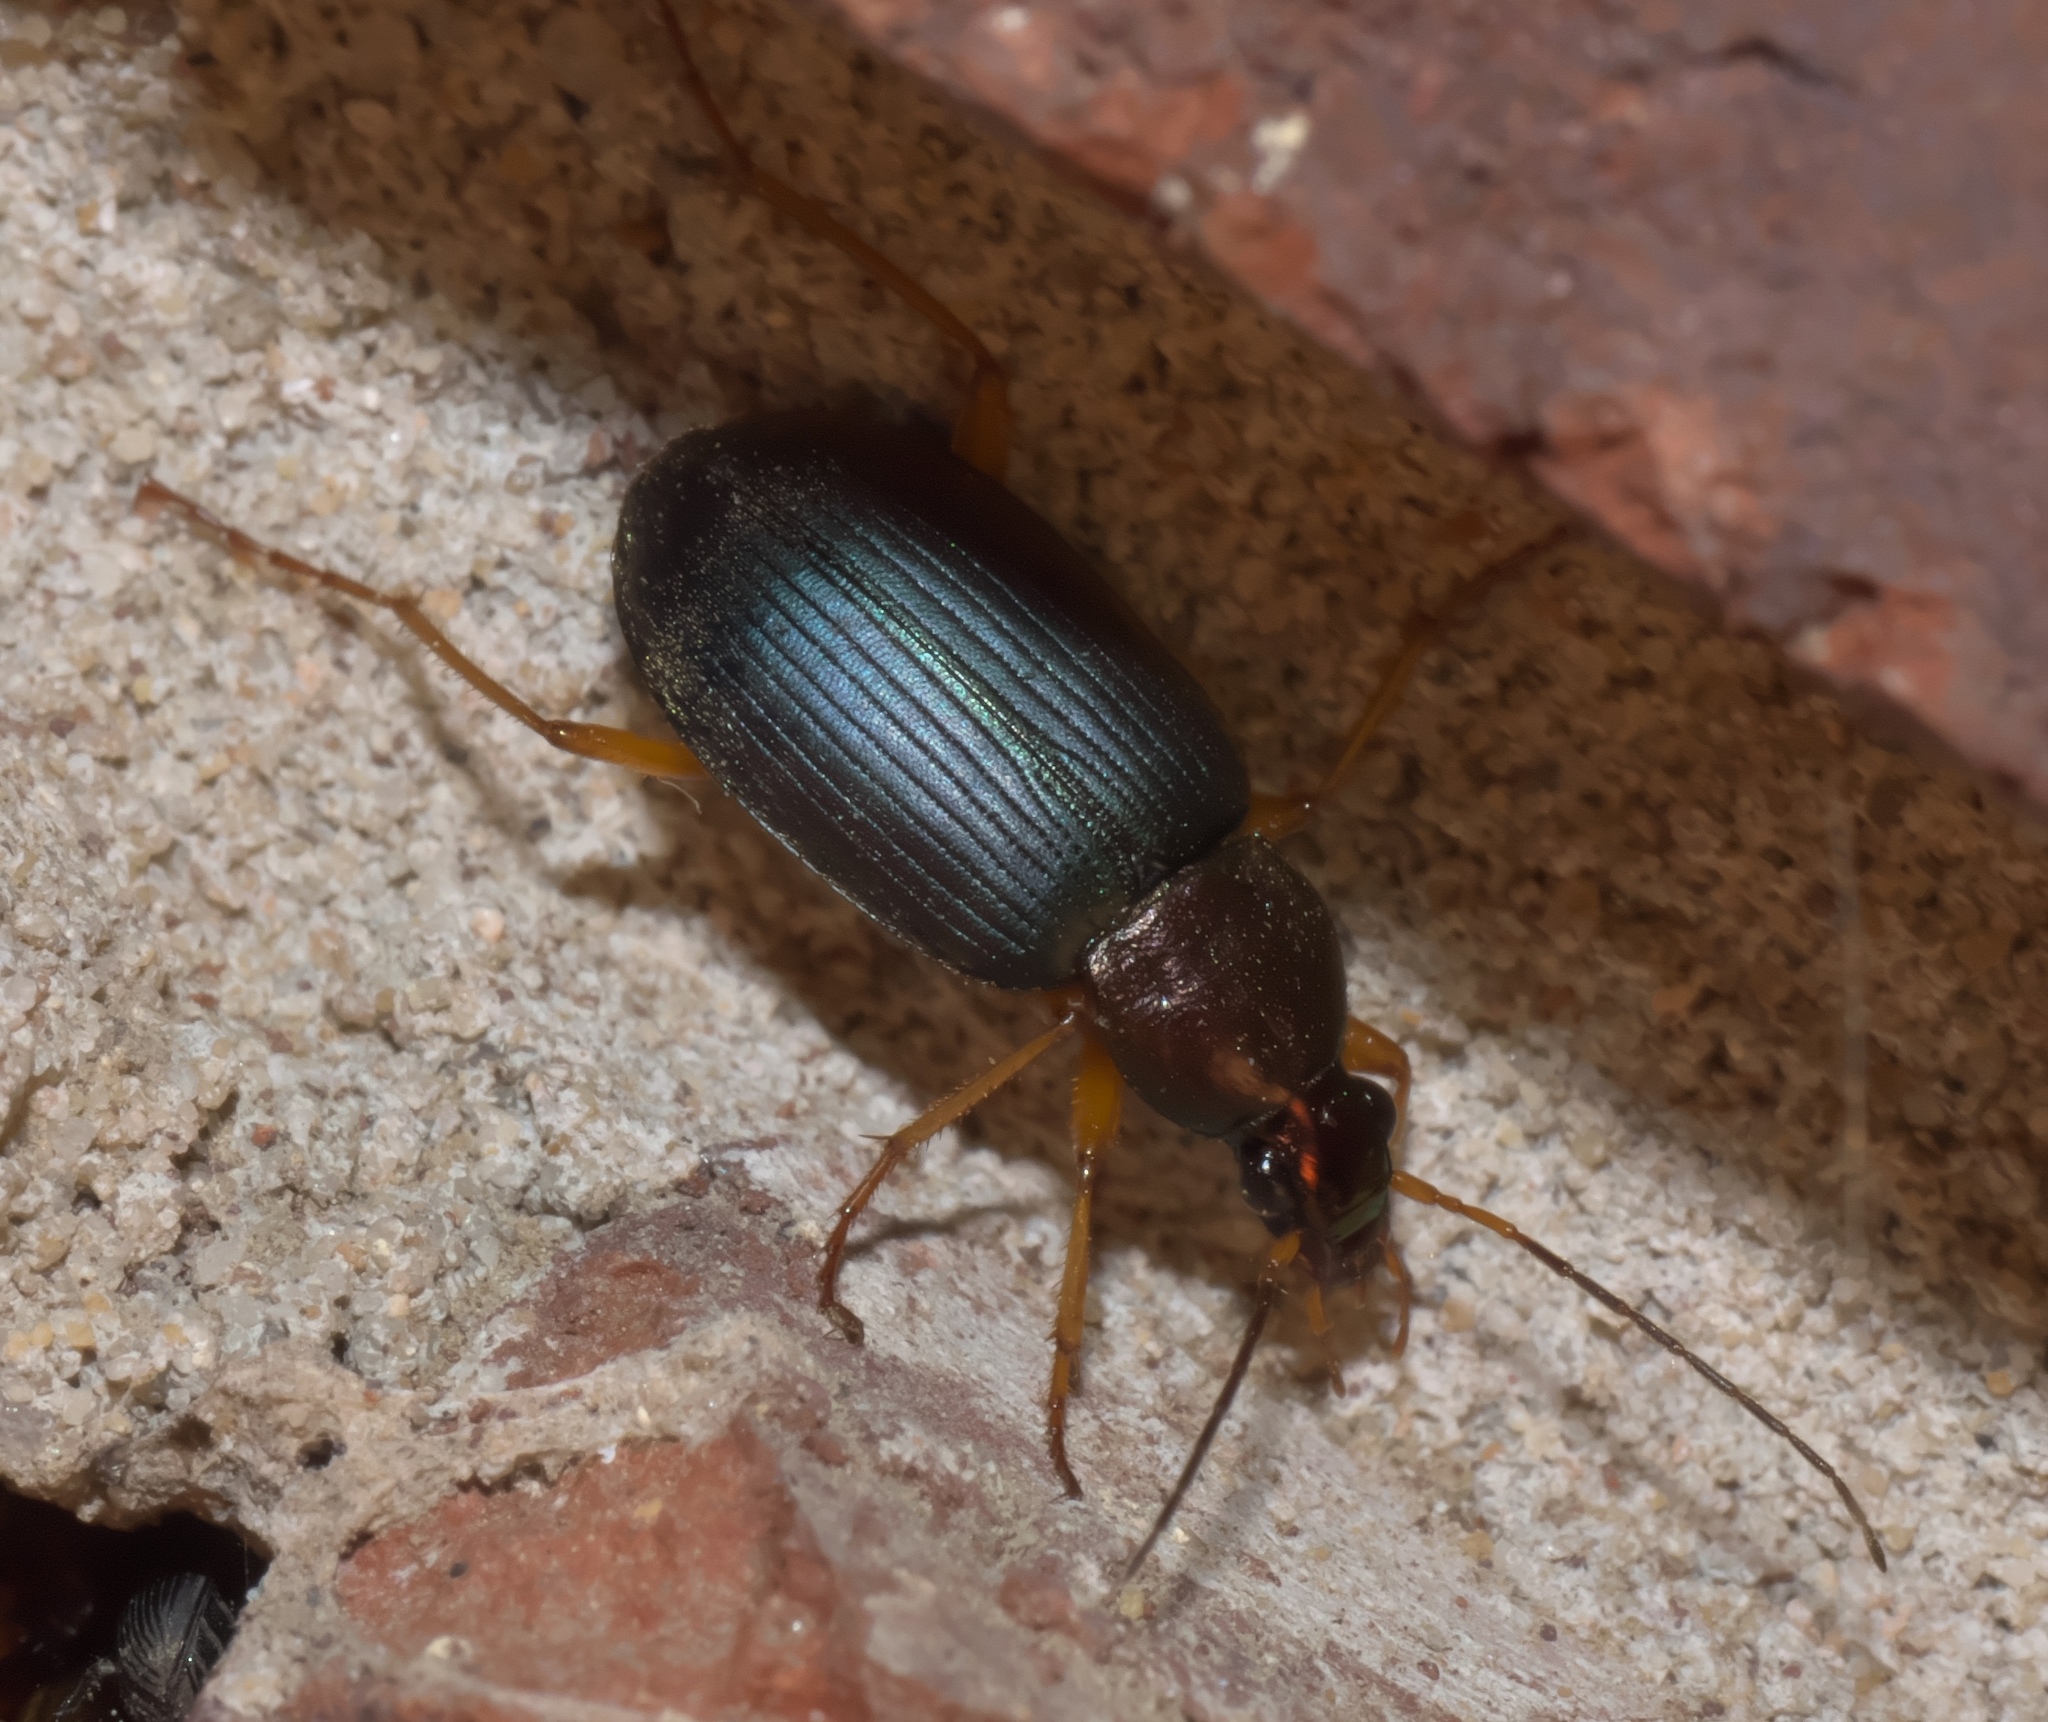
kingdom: Animalia
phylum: Arthropoda
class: Insecta
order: Coleoptera
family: Carabidae
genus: Chlaenius
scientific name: Chlaenius tricolor
